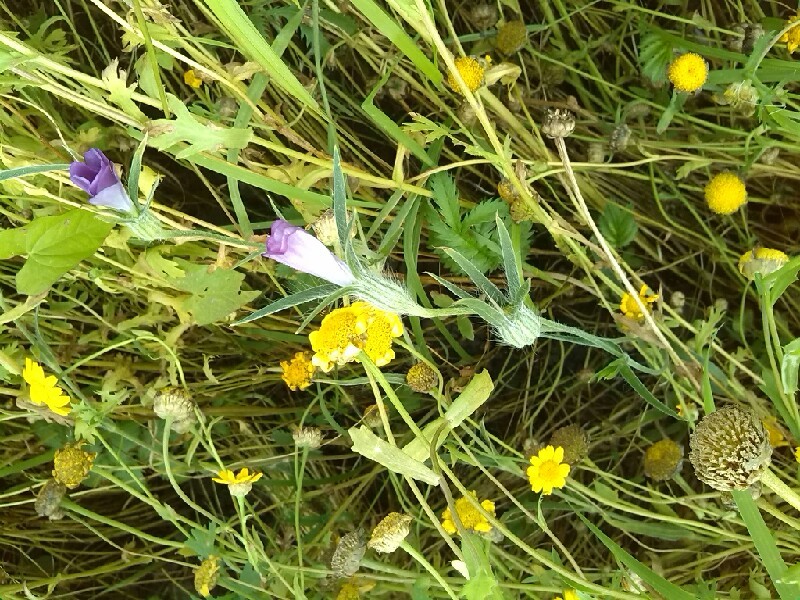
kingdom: Plantae
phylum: Tracheophyta
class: Magnoliopsida
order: Caryophyllales
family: Caryophyllaceae
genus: Agrostemma
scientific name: Agrostemma githago
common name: Common corncockle
